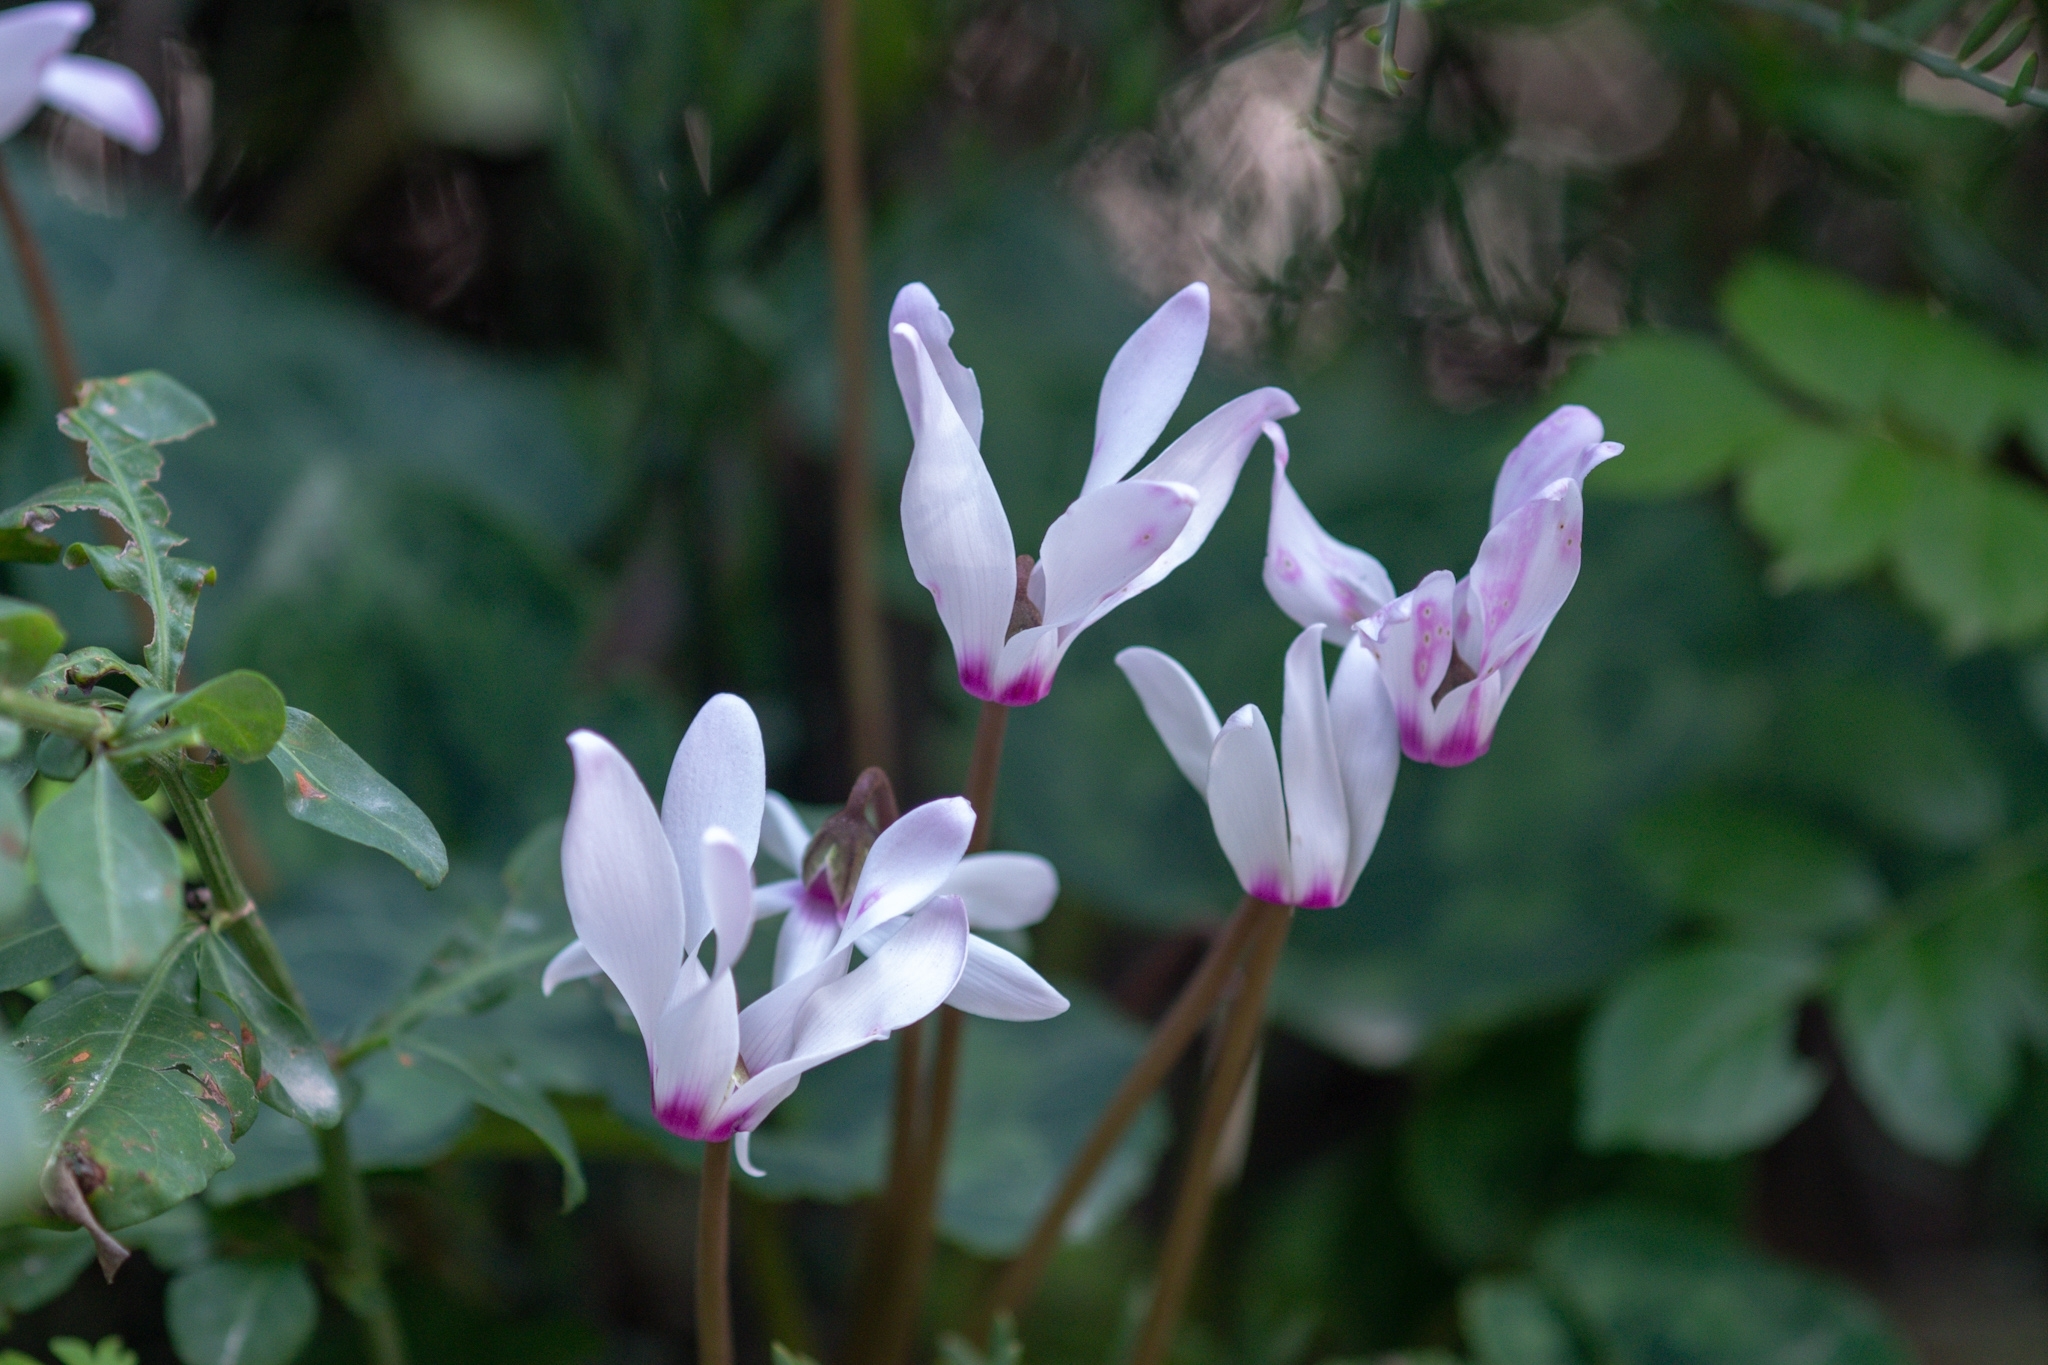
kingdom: Plantae
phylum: Tracheophyta
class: Magnoliopsida
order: Ericales
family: Primulaceae
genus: Cyclamen
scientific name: Cyclamen persicum
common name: Florist's cyclamen
